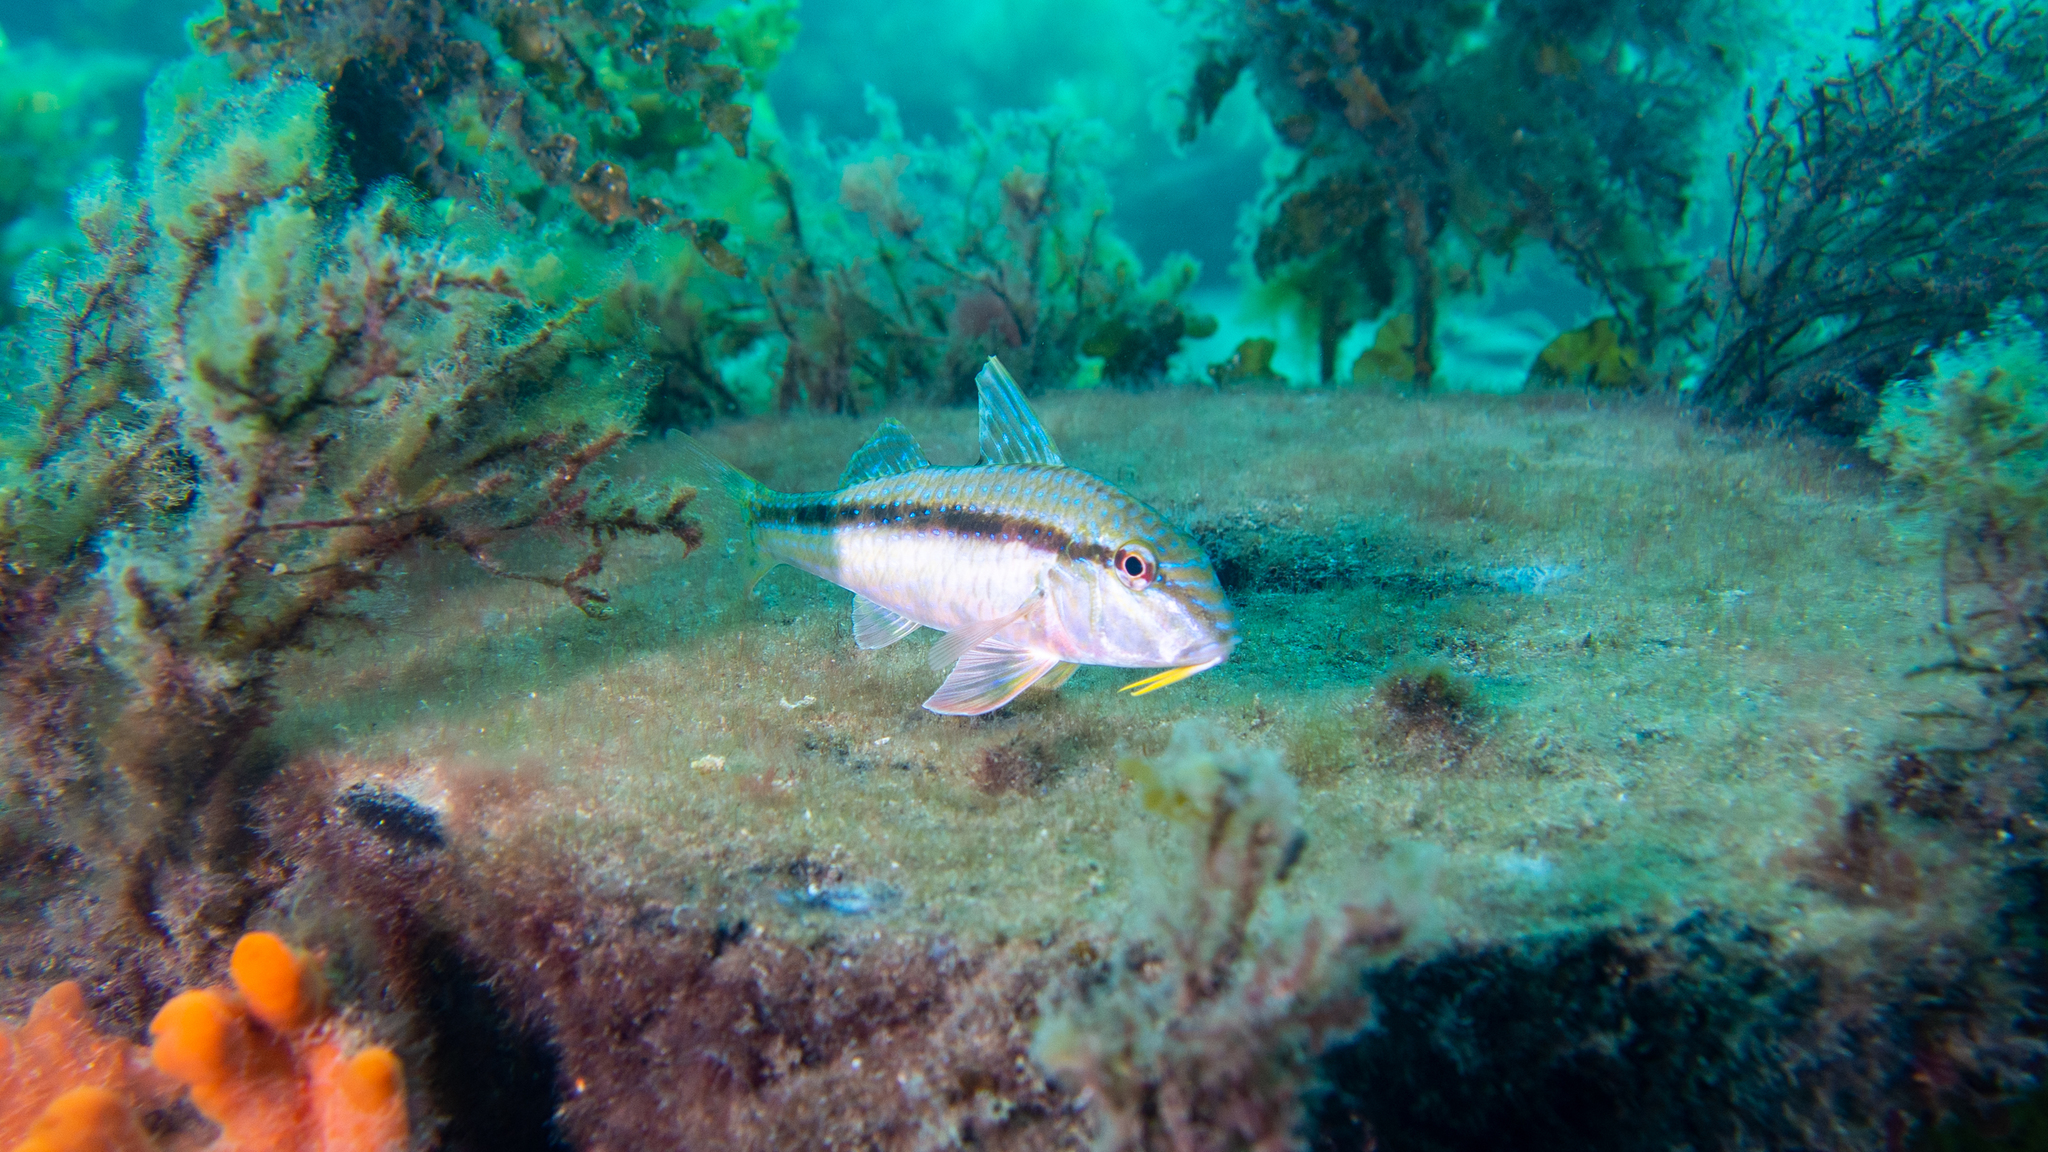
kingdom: Animalia
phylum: Chordata
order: Perciformes
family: Mullidae
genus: Upeneichthys
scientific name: Upeneichthys vlamingii
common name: Red mullet
